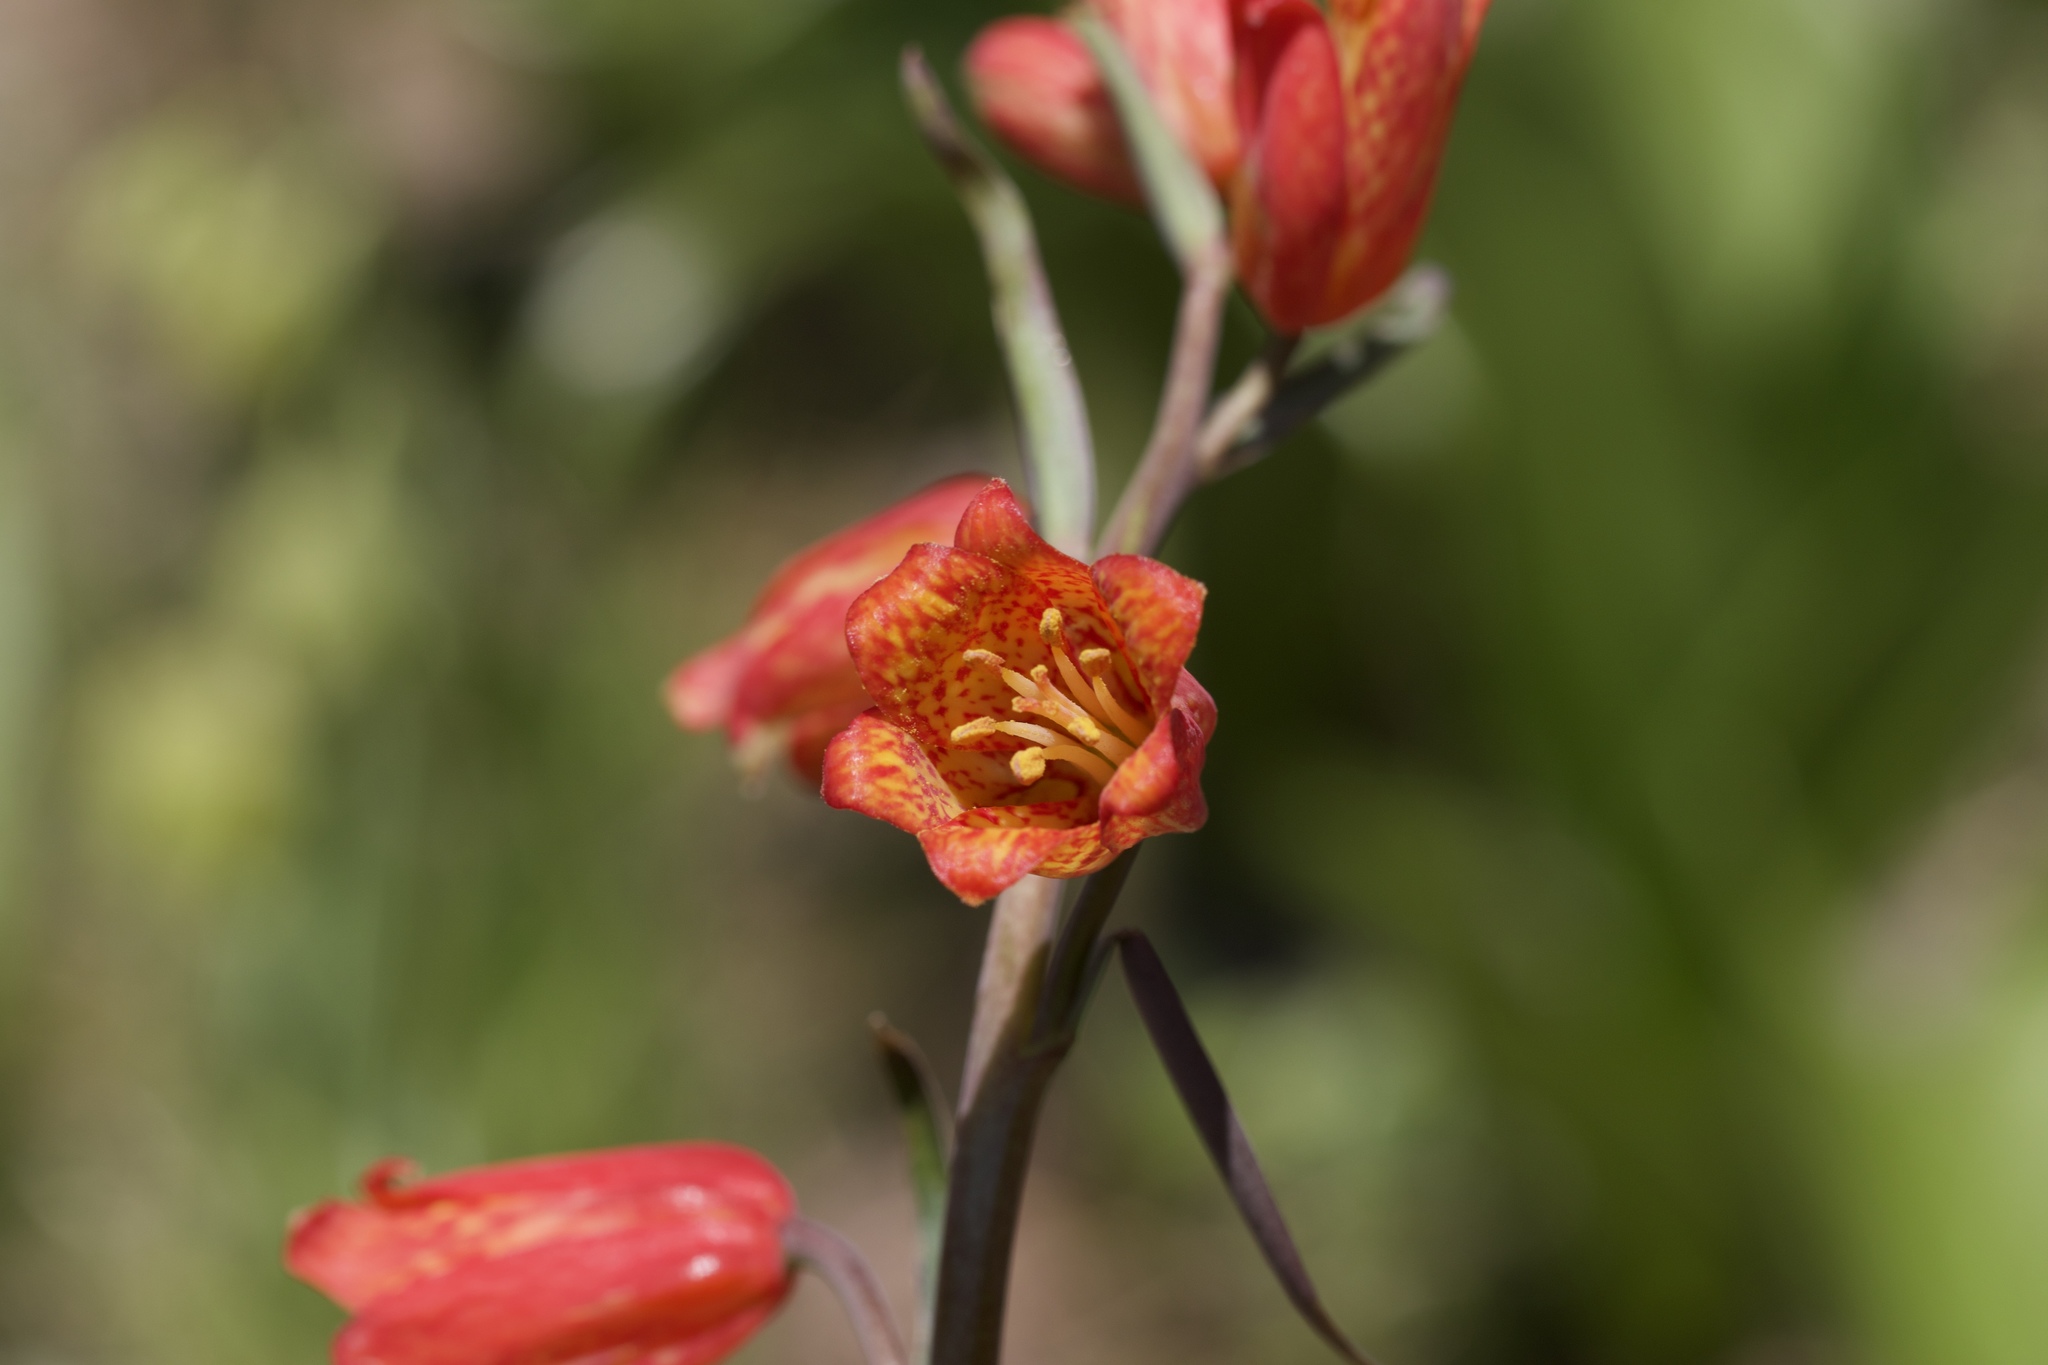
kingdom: Plantae
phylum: Tracheophyta
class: Liliopsida
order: Liliales
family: Liliaceae
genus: Fritillaria
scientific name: Fritillaria recurva
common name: Scarlet fritillary
